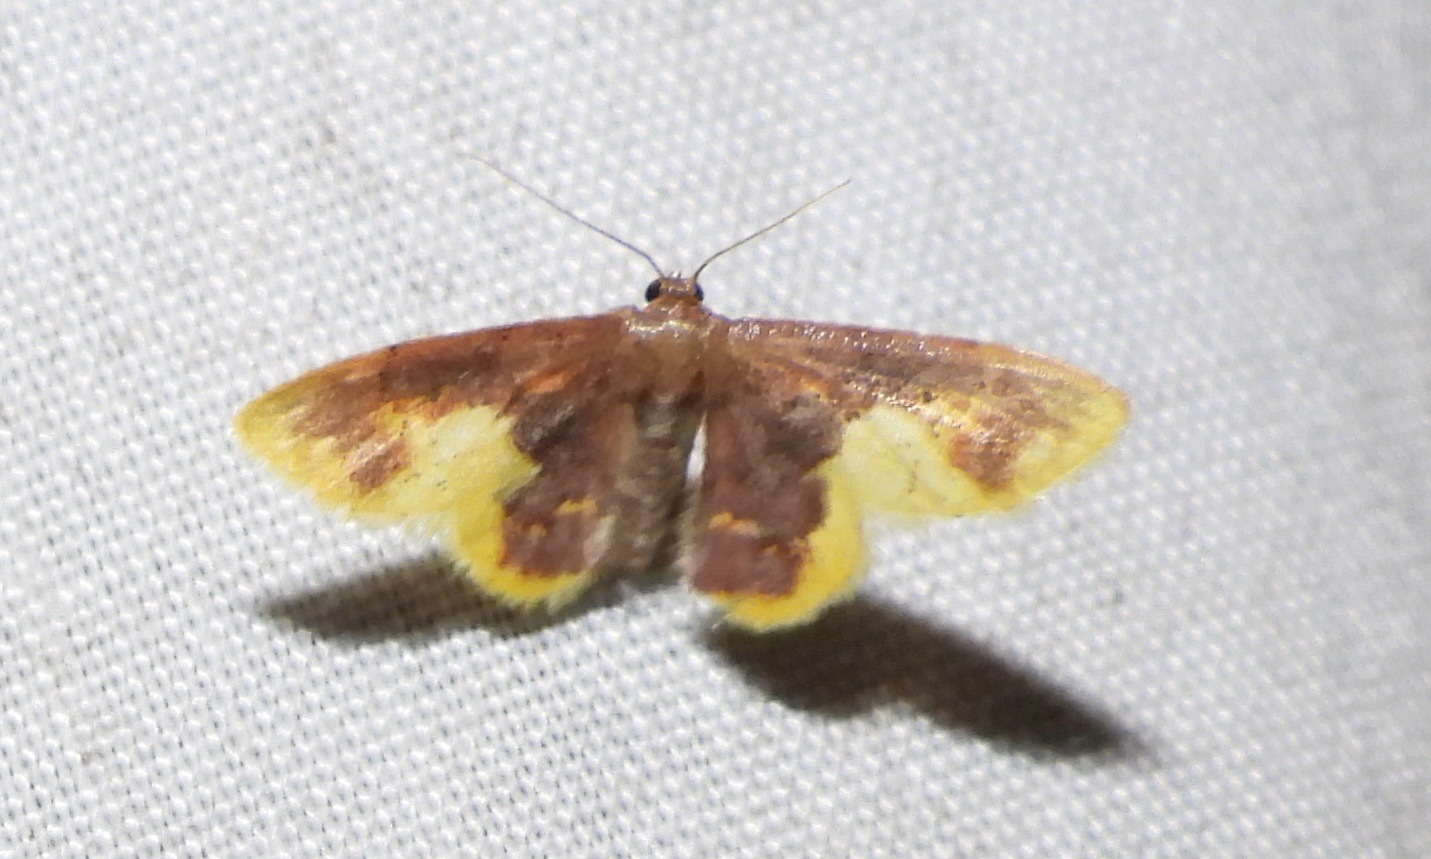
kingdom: Animalia
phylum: Arthropoda
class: Insecta
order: Lepidoptera
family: Geometridae
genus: Lophosis
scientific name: Lophosis labeculata
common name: Stained lophosis moth
